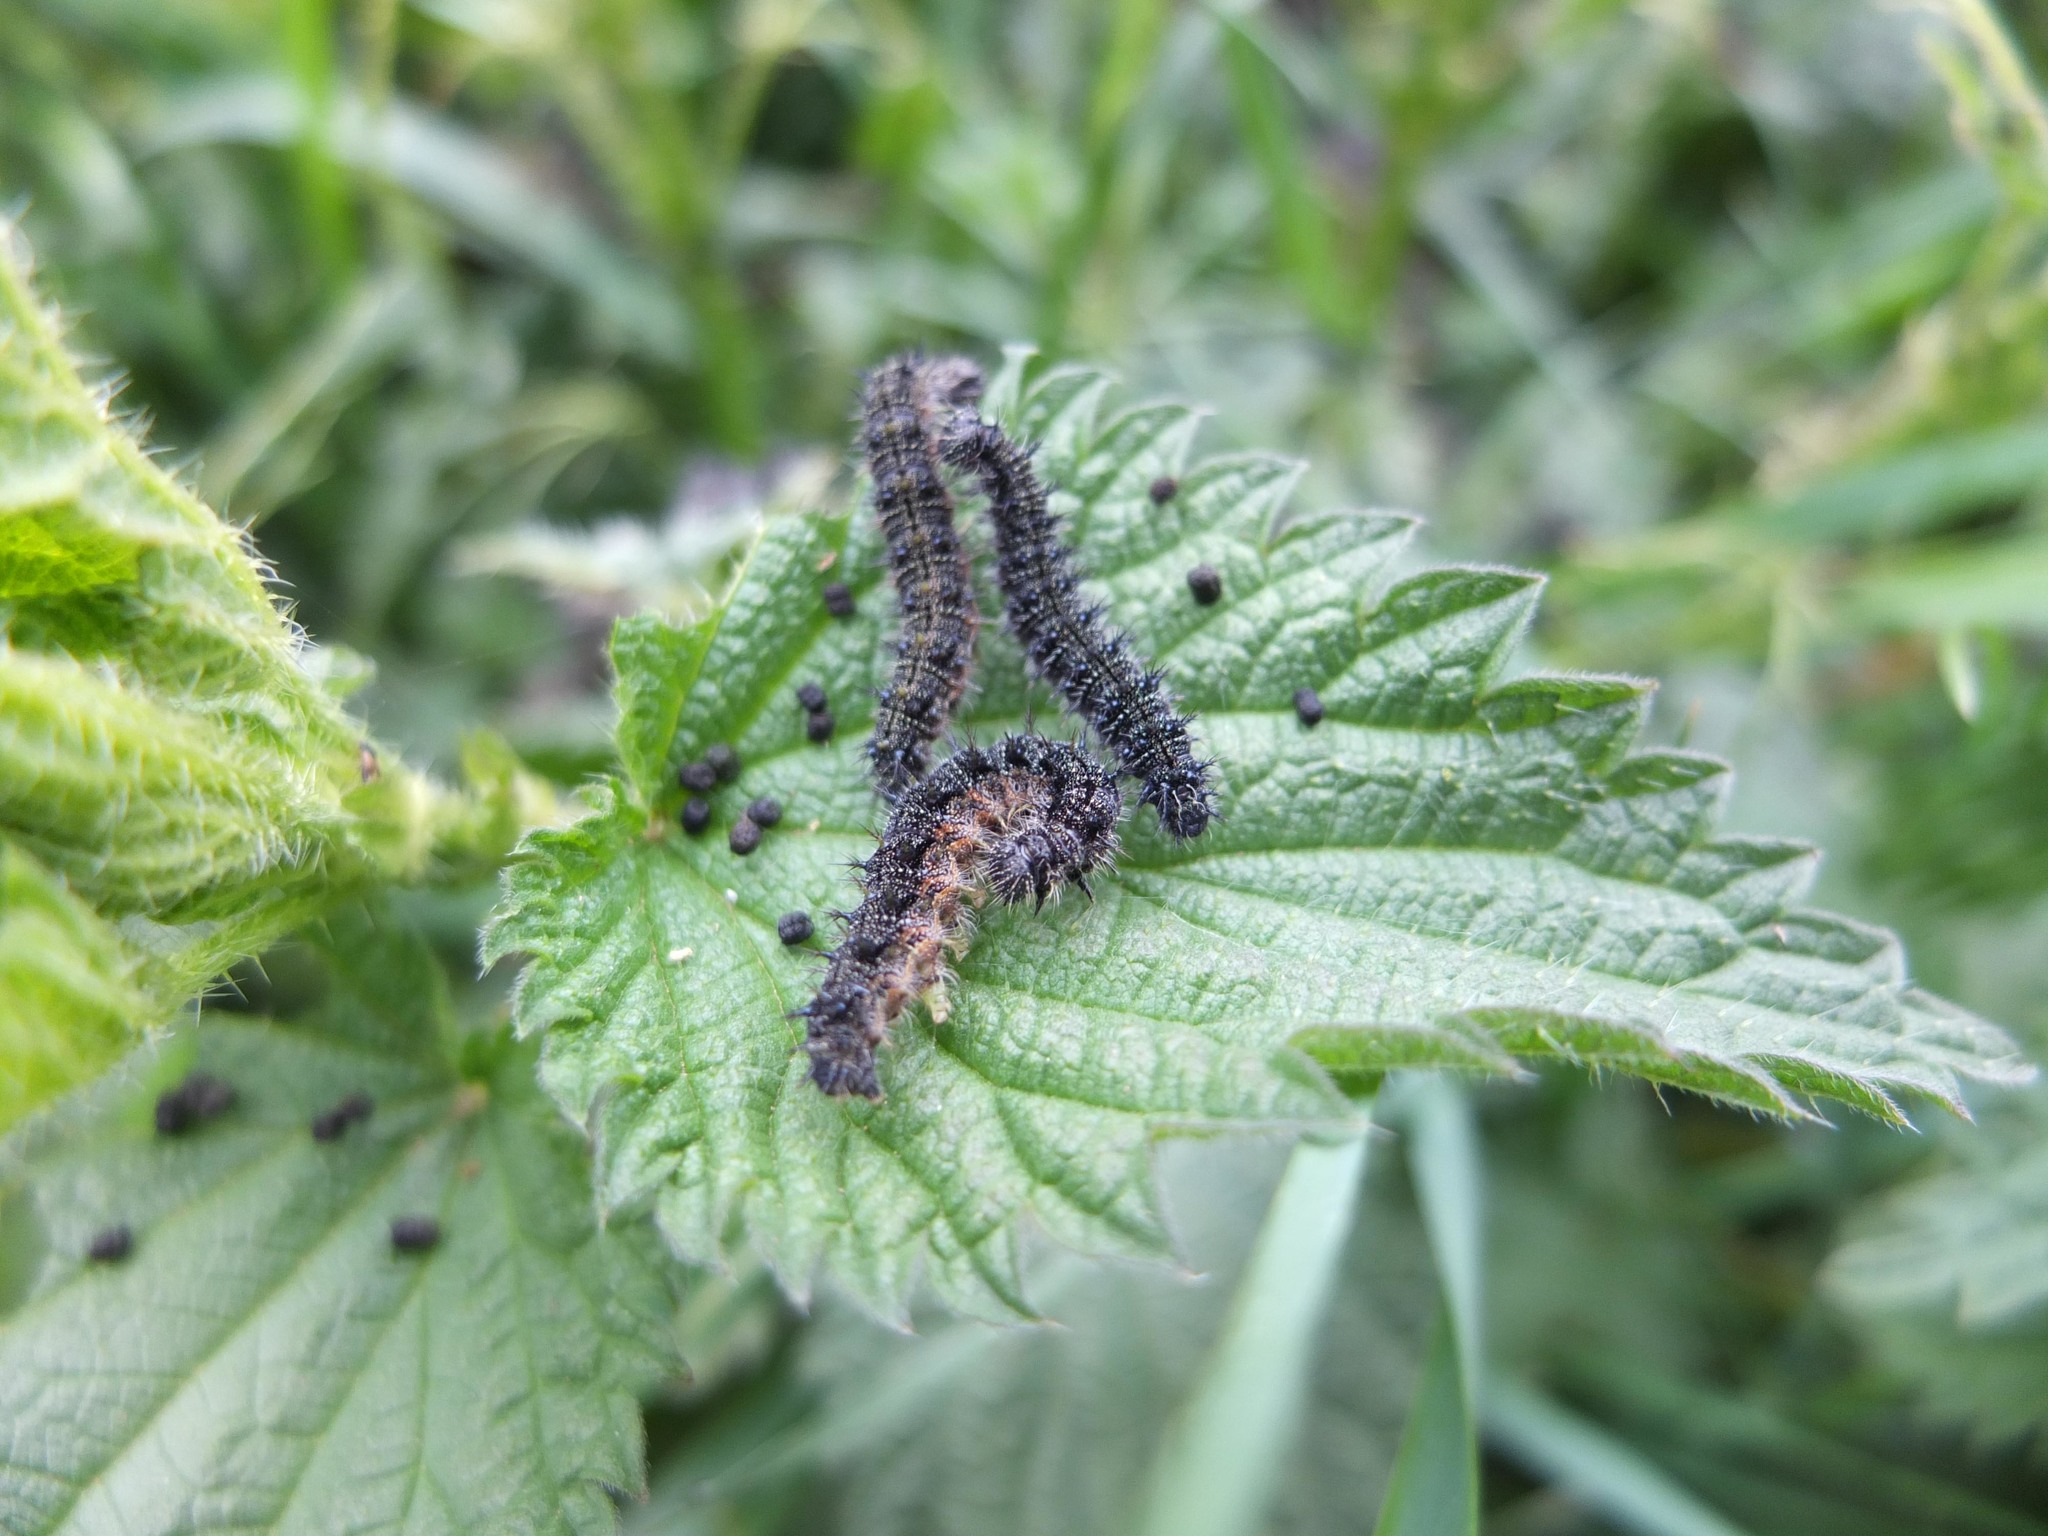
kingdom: Animalia
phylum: Arthropoda
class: Insecta
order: Lepidoptera
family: Nymphalidae
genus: Aglais
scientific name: Aglais io
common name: Peacock
